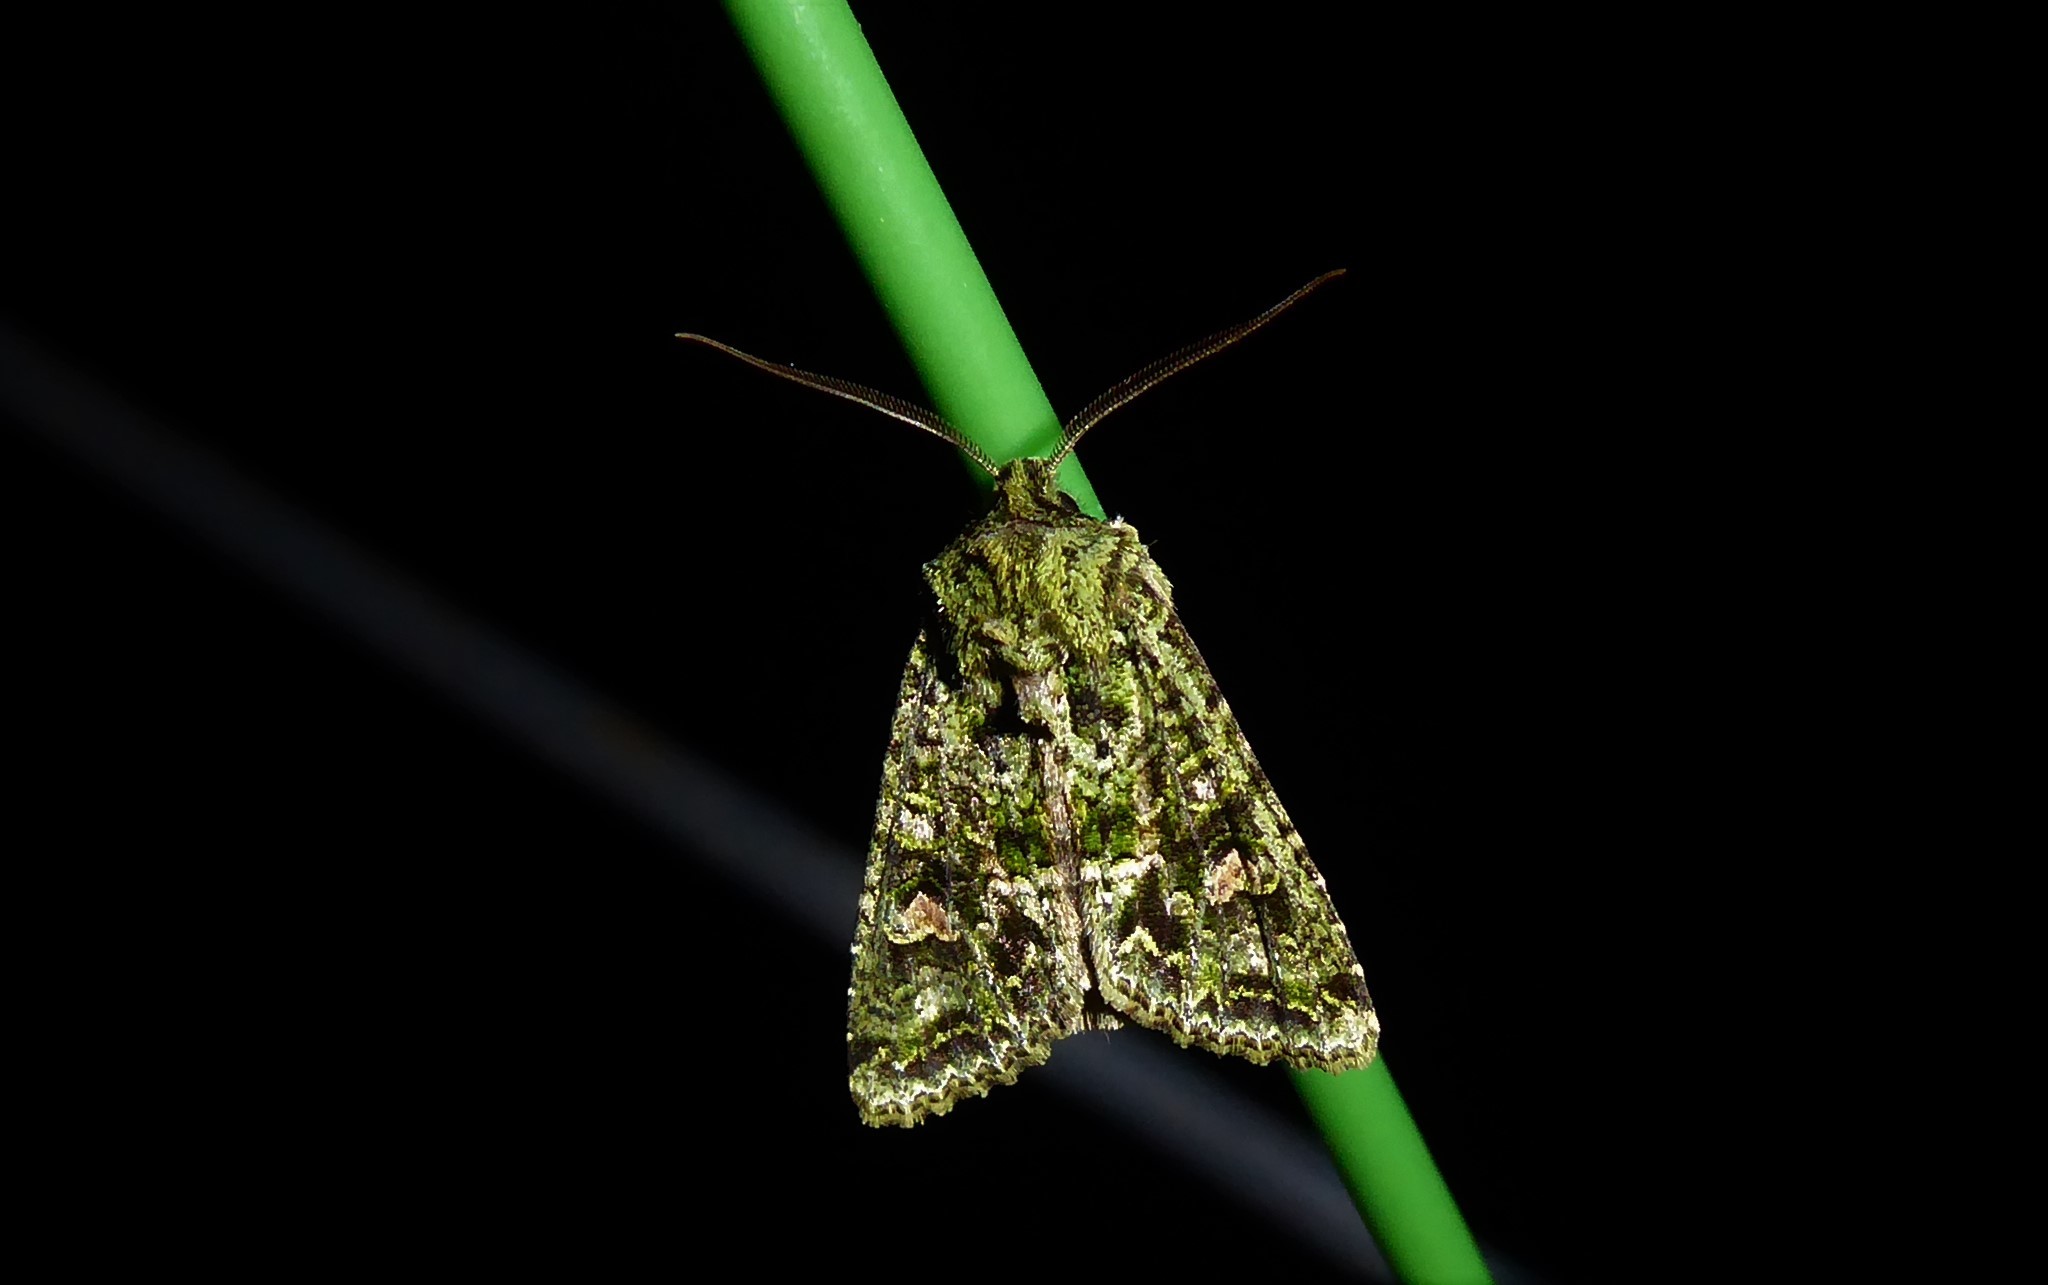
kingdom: Animalia
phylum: Arthropoda
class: Insecta
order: Lepidoptera
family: Noctuidae
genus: Ichneutica
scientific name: Ichneutica
